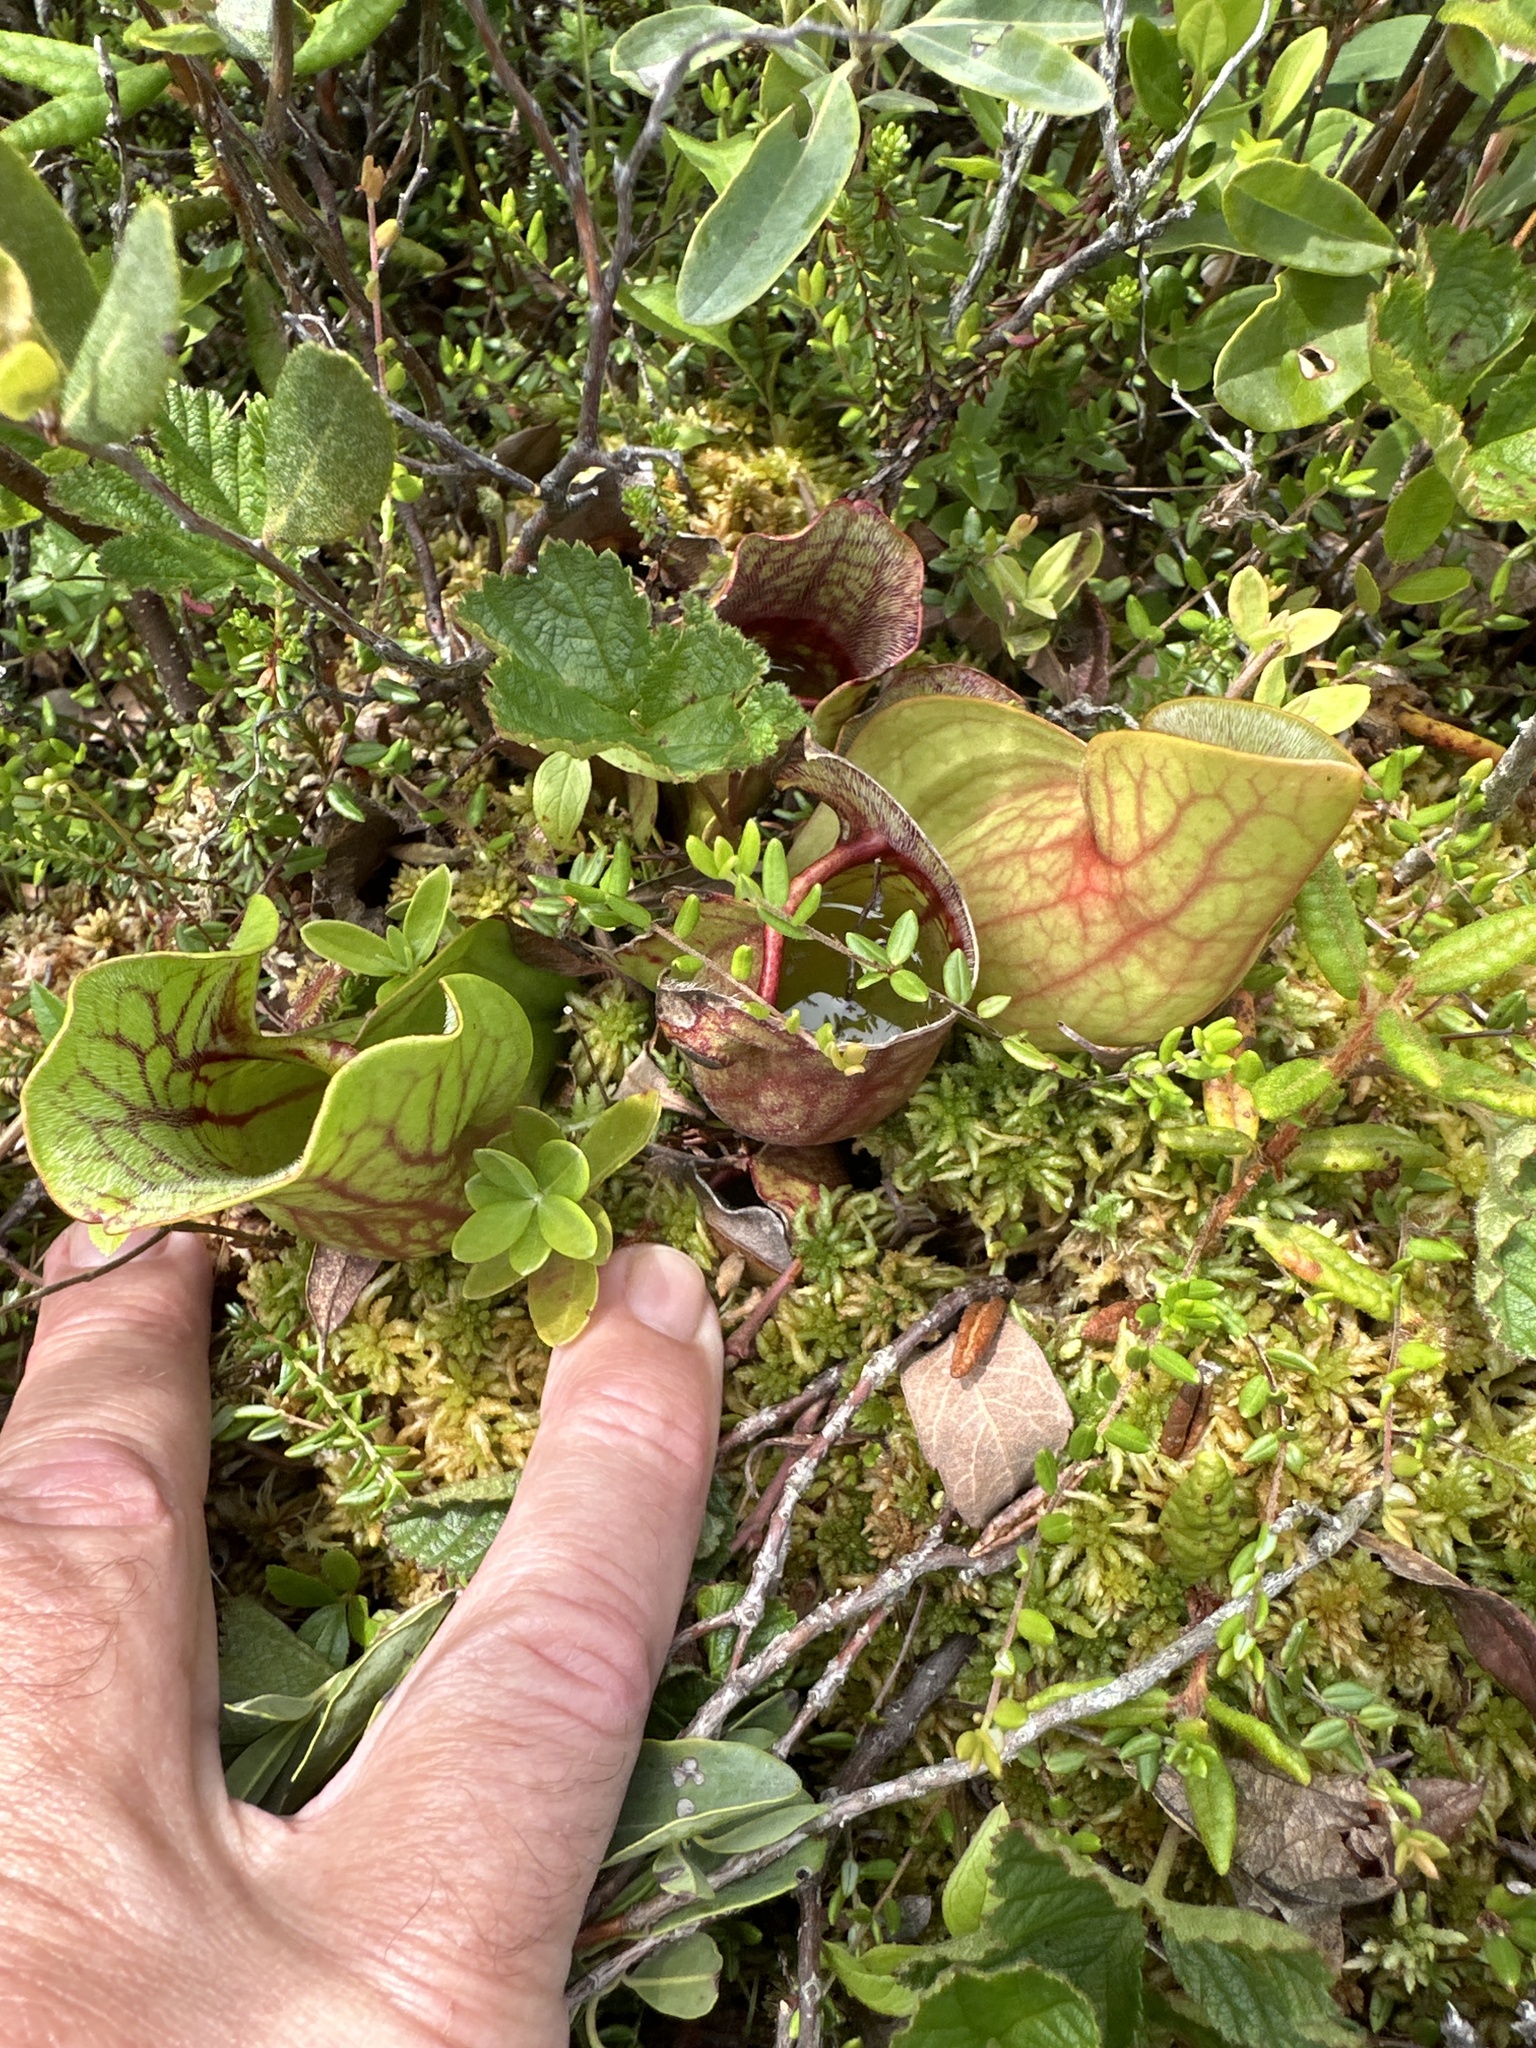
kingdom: Plantae
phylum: Tracheophyta
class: Magnoliopsida
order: Ericales
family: Sarraceniaceae
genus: Sarracenia
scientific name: Sarracenia purpurea
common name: Pitcherplant
